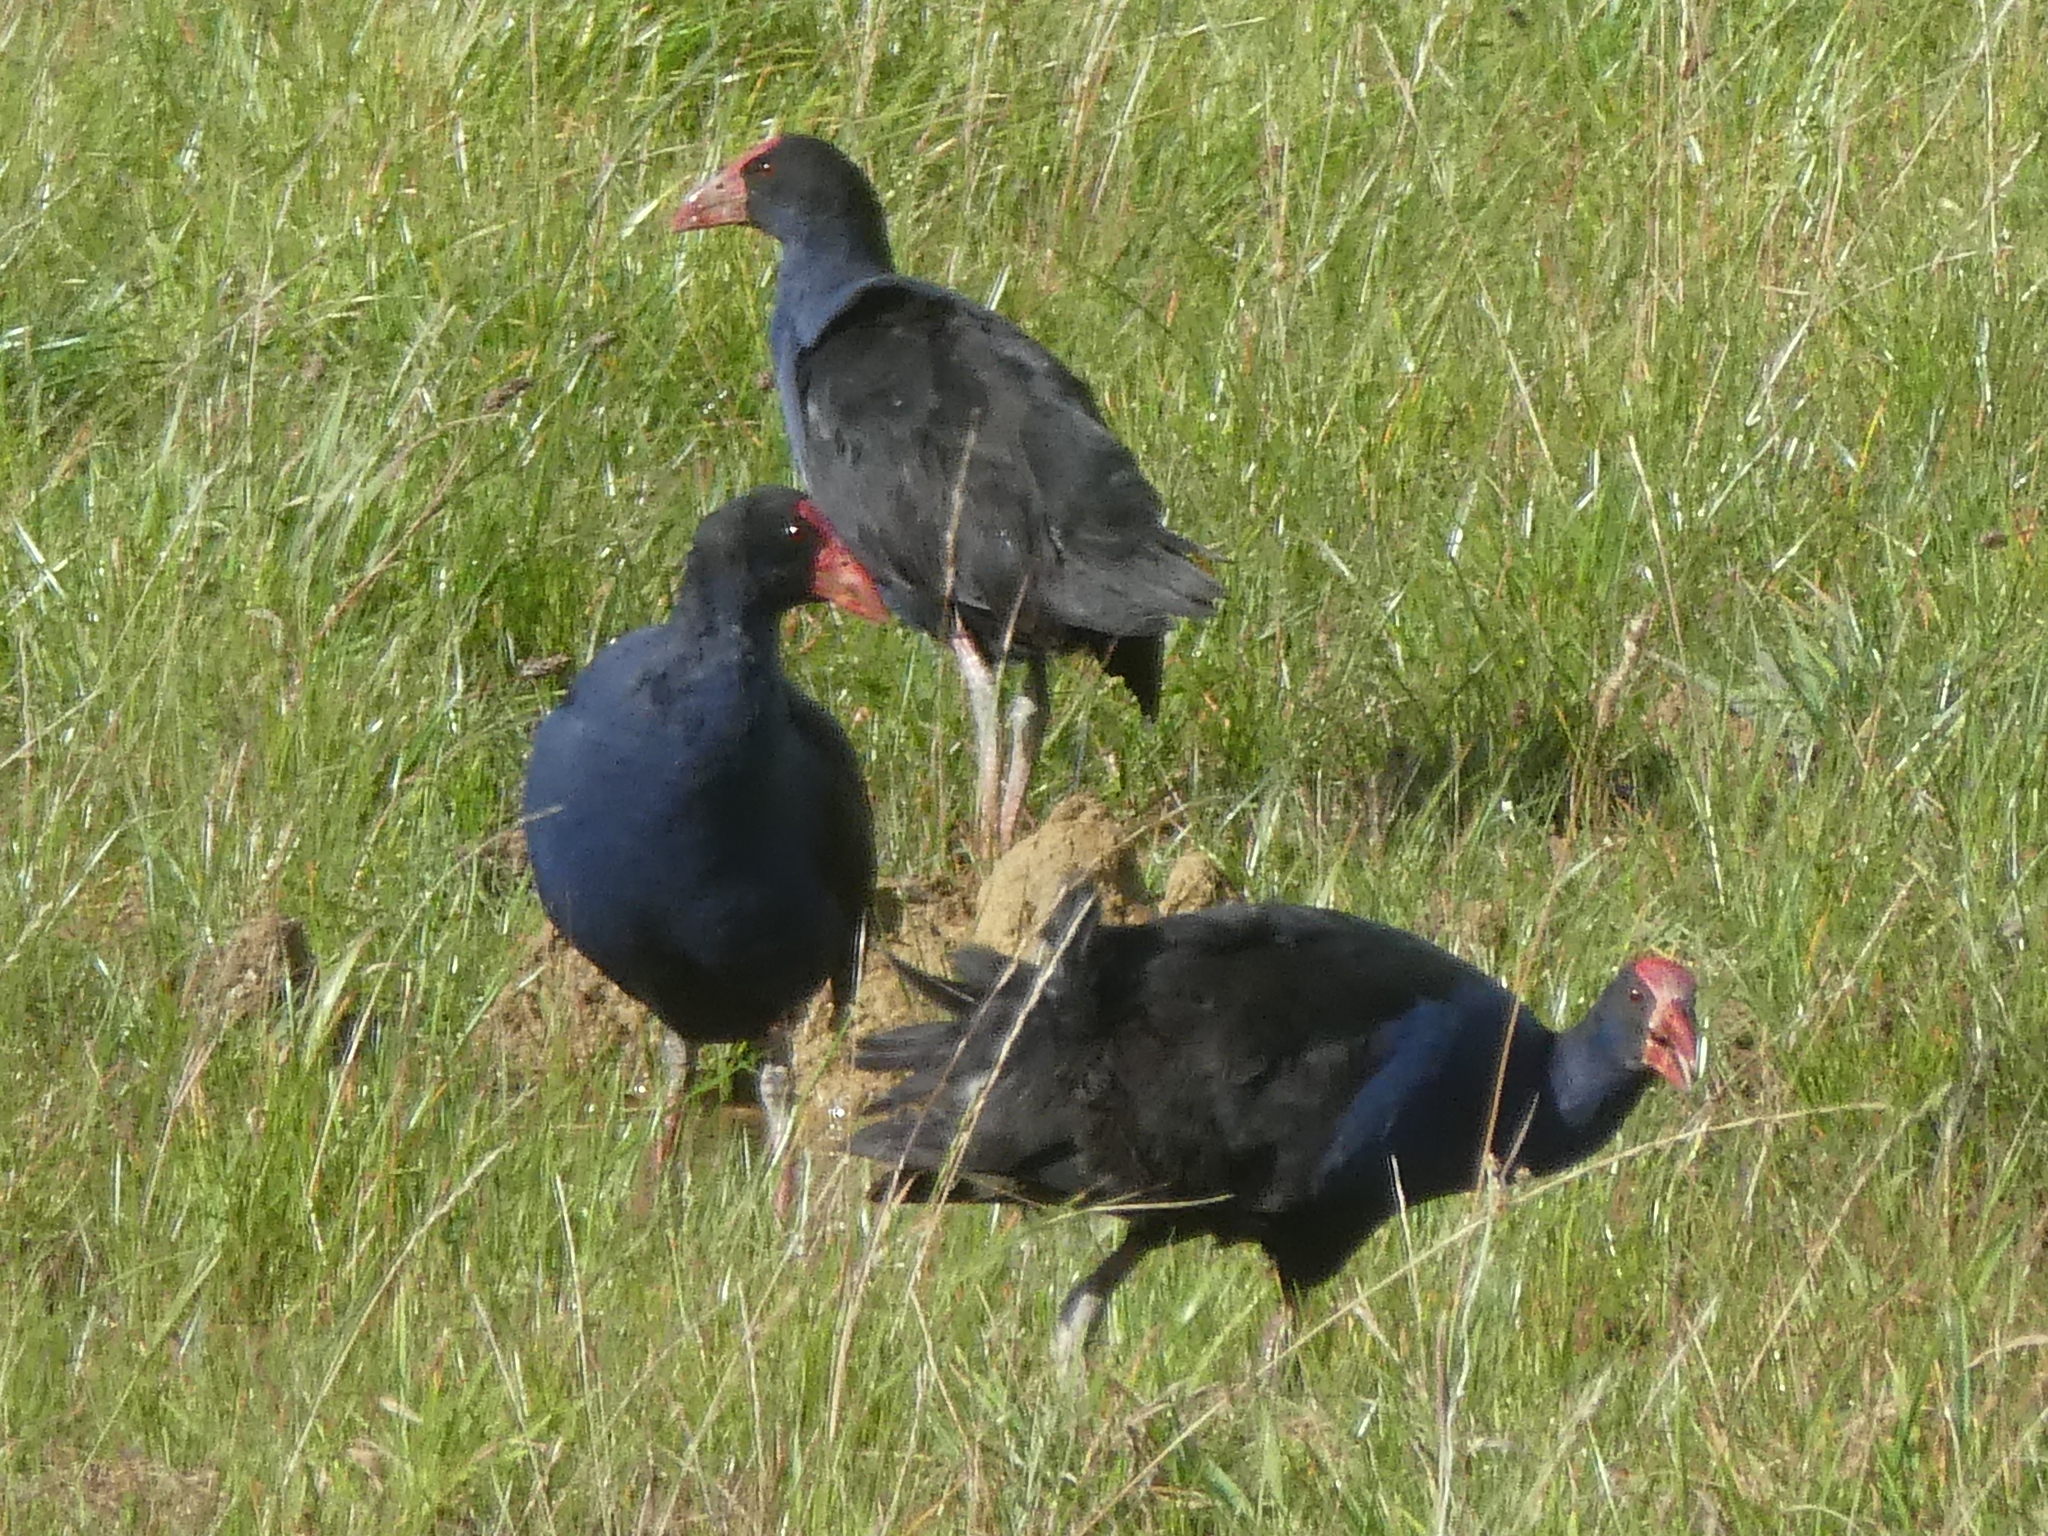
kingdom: Animalia
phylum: Chordata
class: Aves
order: Gruiformes
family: Rallidae
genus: Porphyrio
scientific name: Porphyrio melanotus
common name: Australasian swamphen
